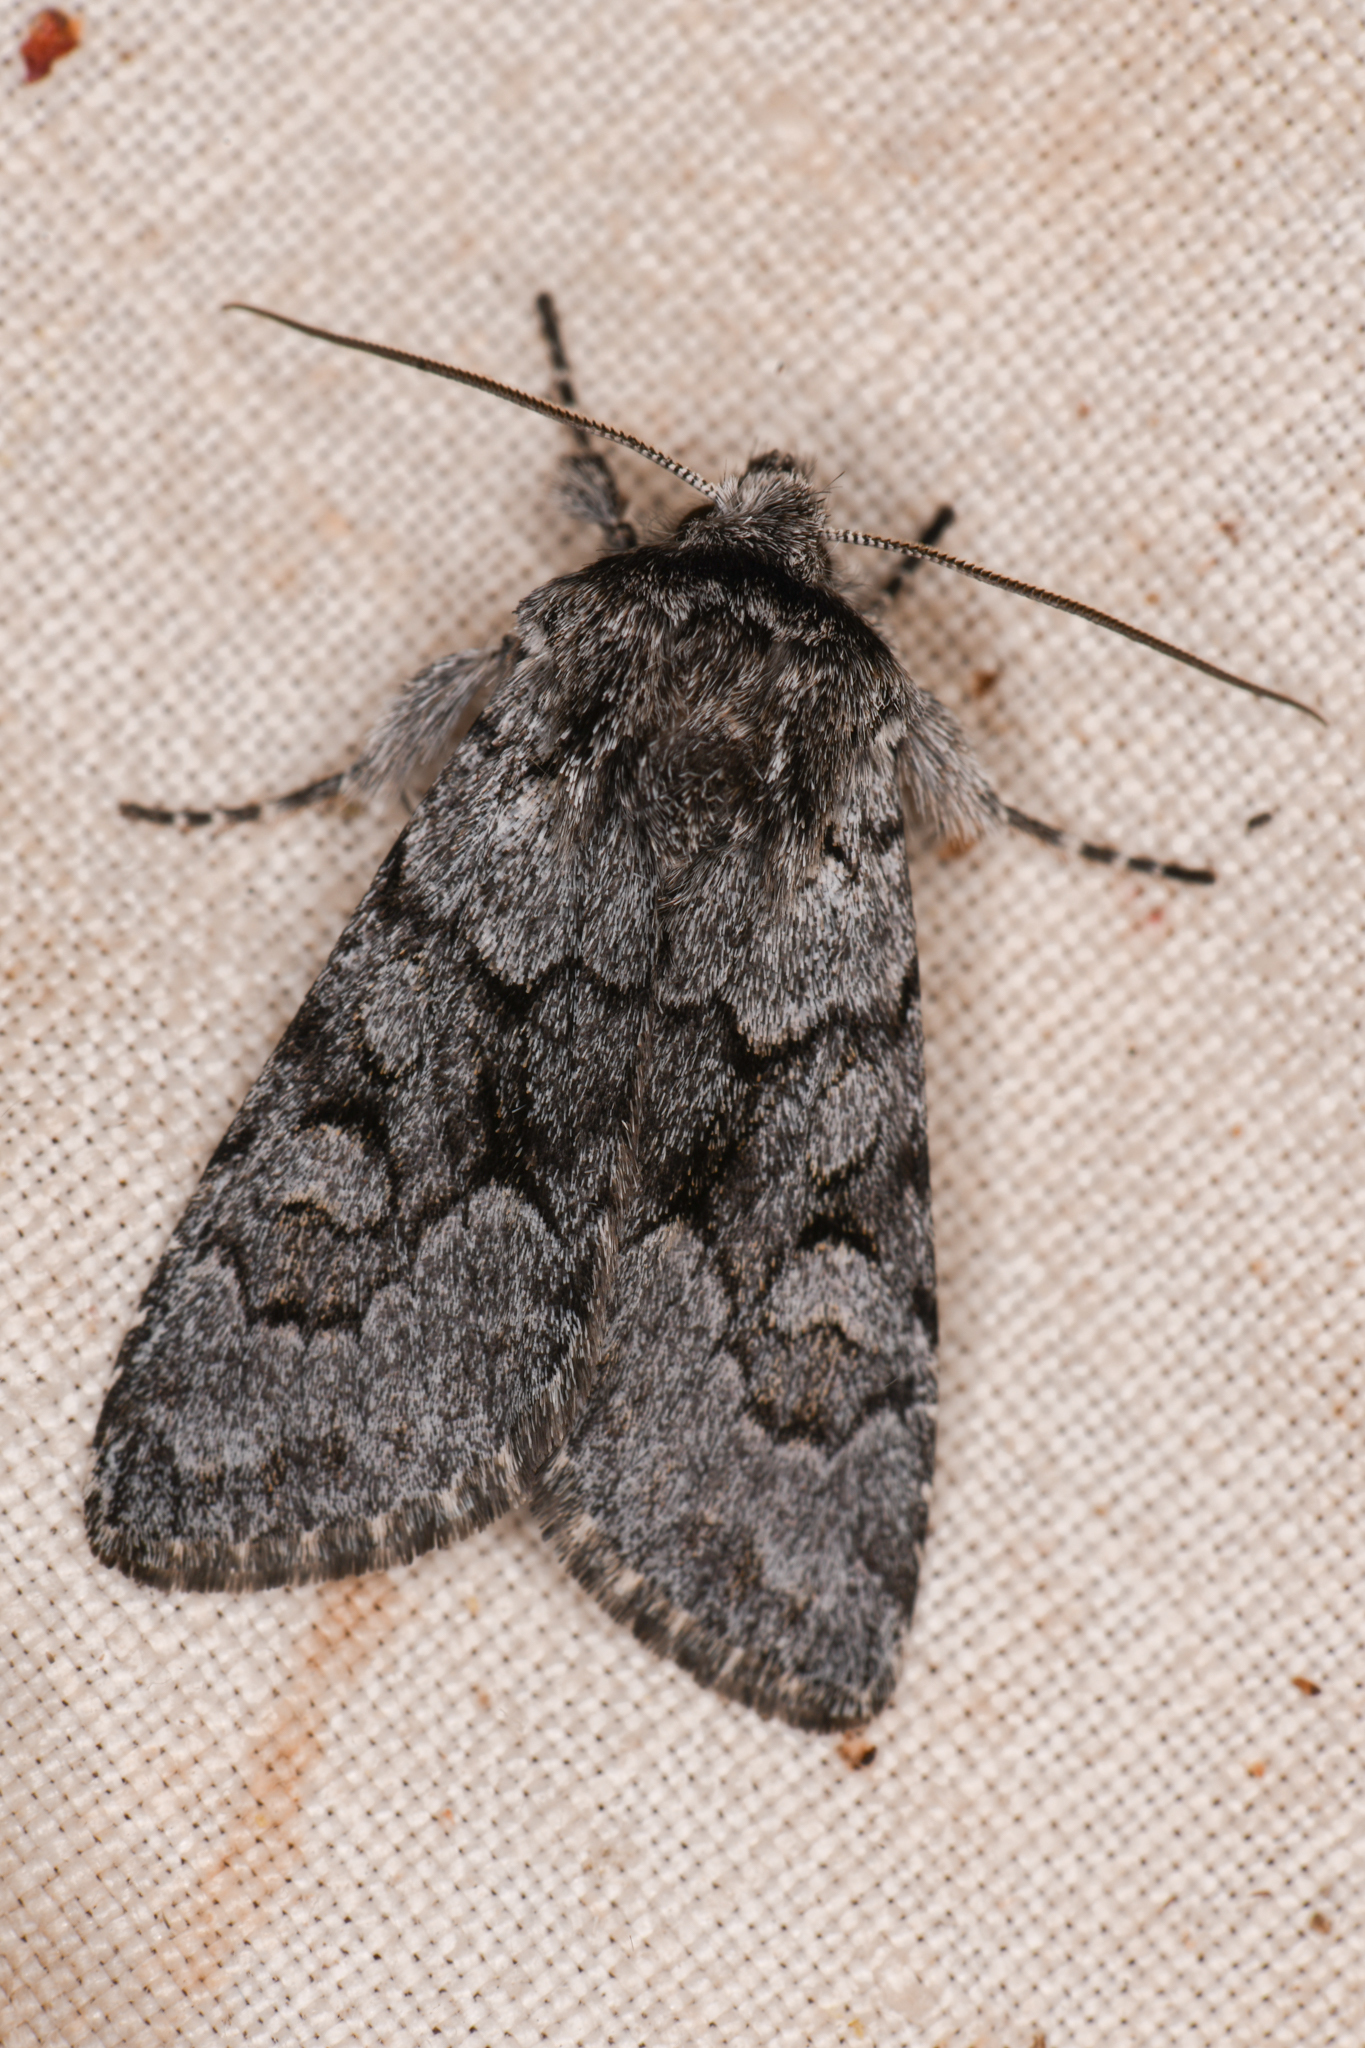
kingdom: Animalia
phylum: Arthropoda
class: Insecta
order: Lepidoptera
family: Noctuidae
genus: Lasionycta
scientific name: Lasionycta fergusoni
